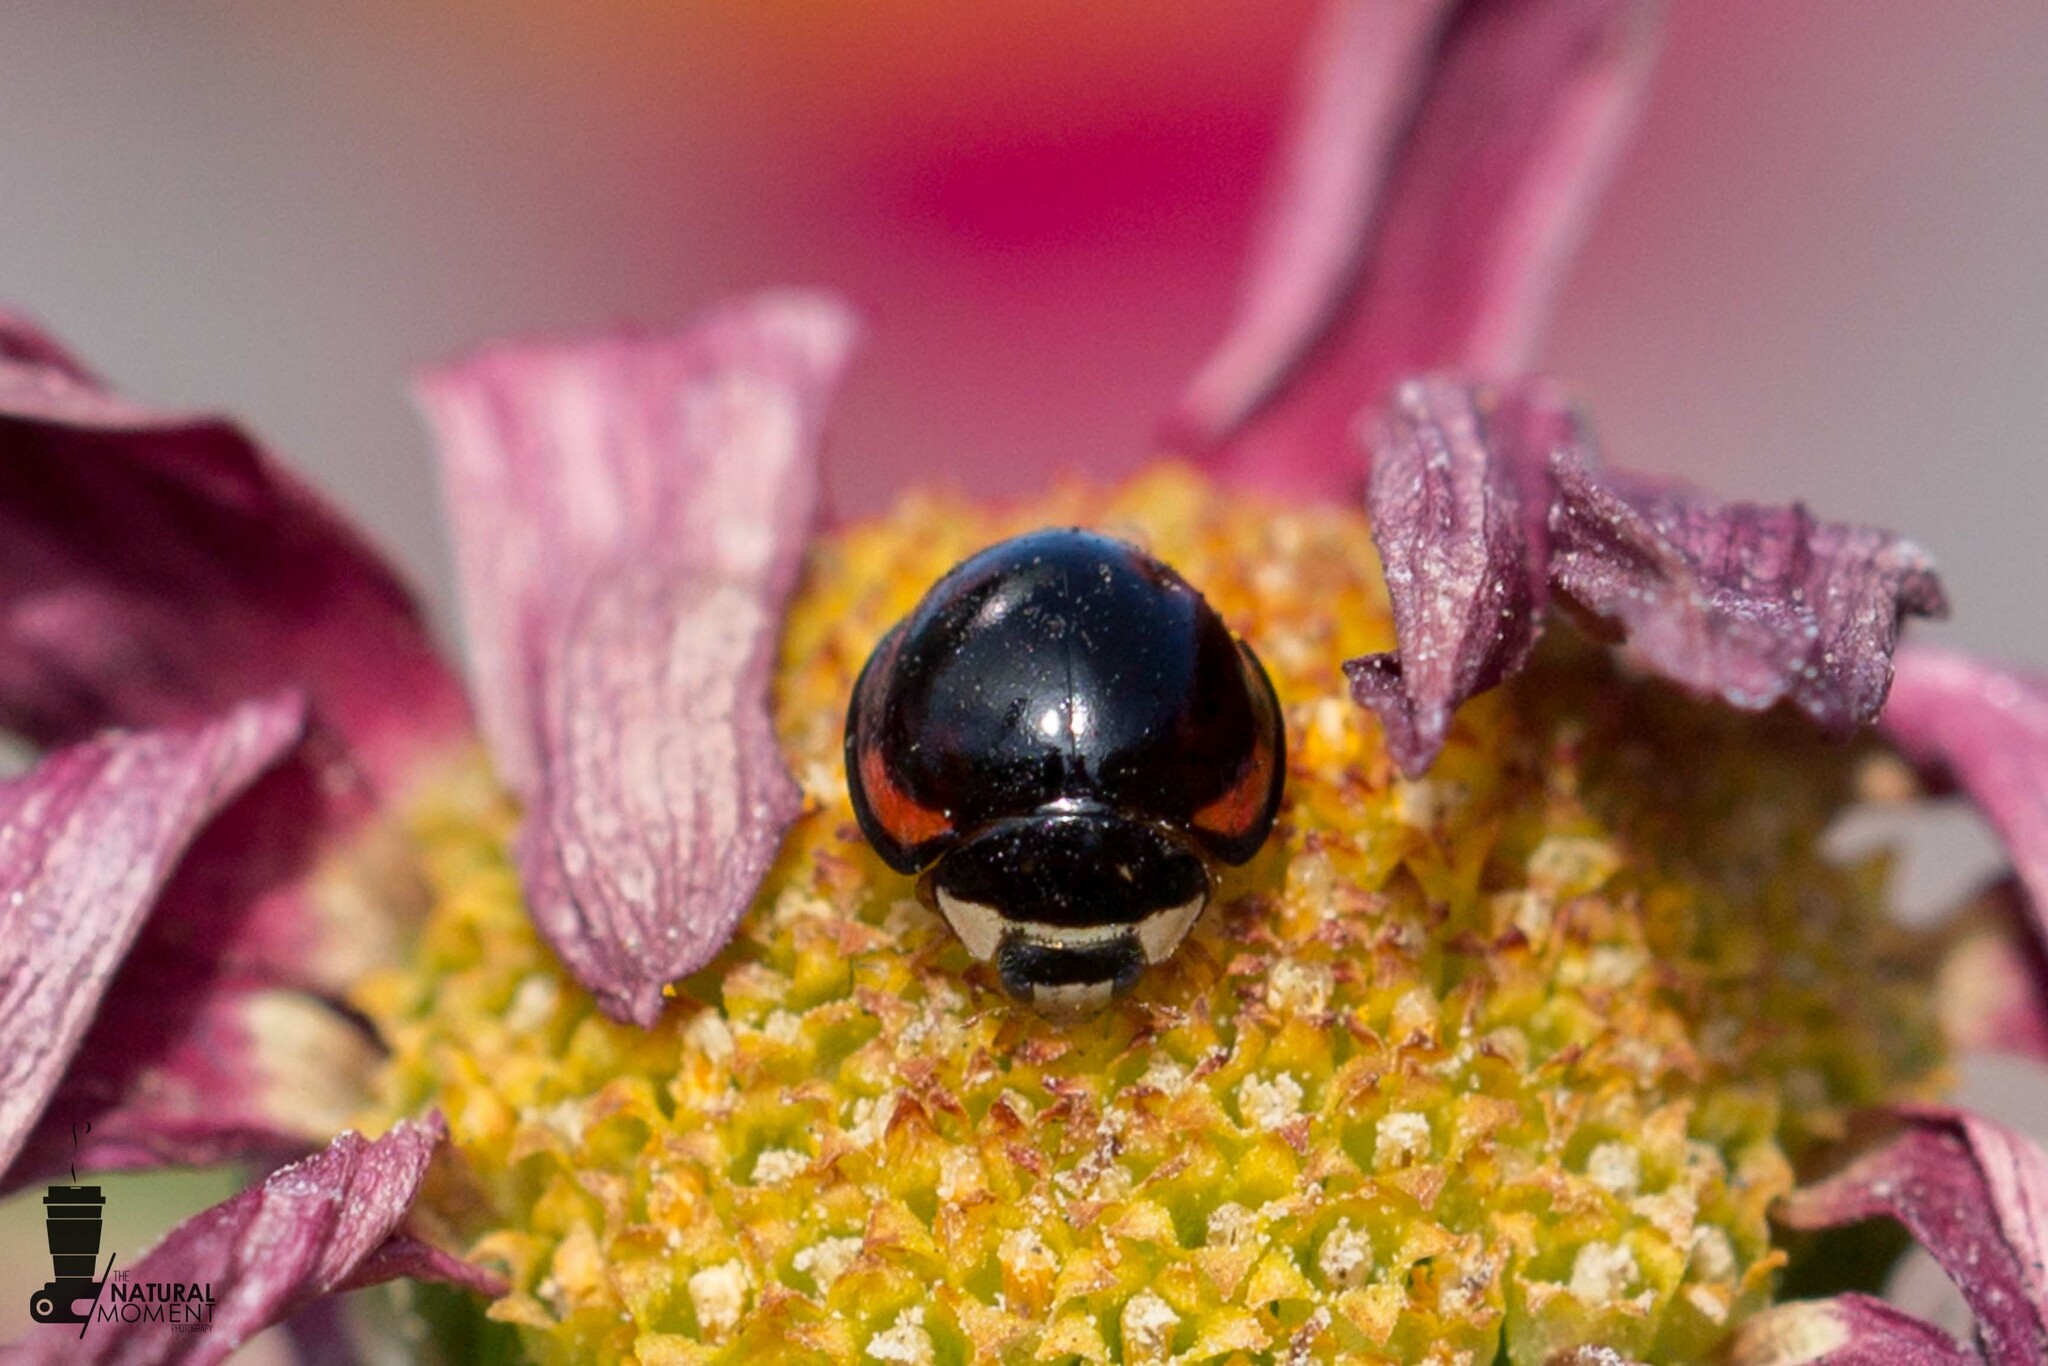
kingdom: Animalia
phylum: Arthropoda
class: Insecta
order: Coleoptera
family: Coccinellidae
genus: Cheilomenes
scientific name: Cheilomenes sexmaculata
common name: Ladybird beetle
